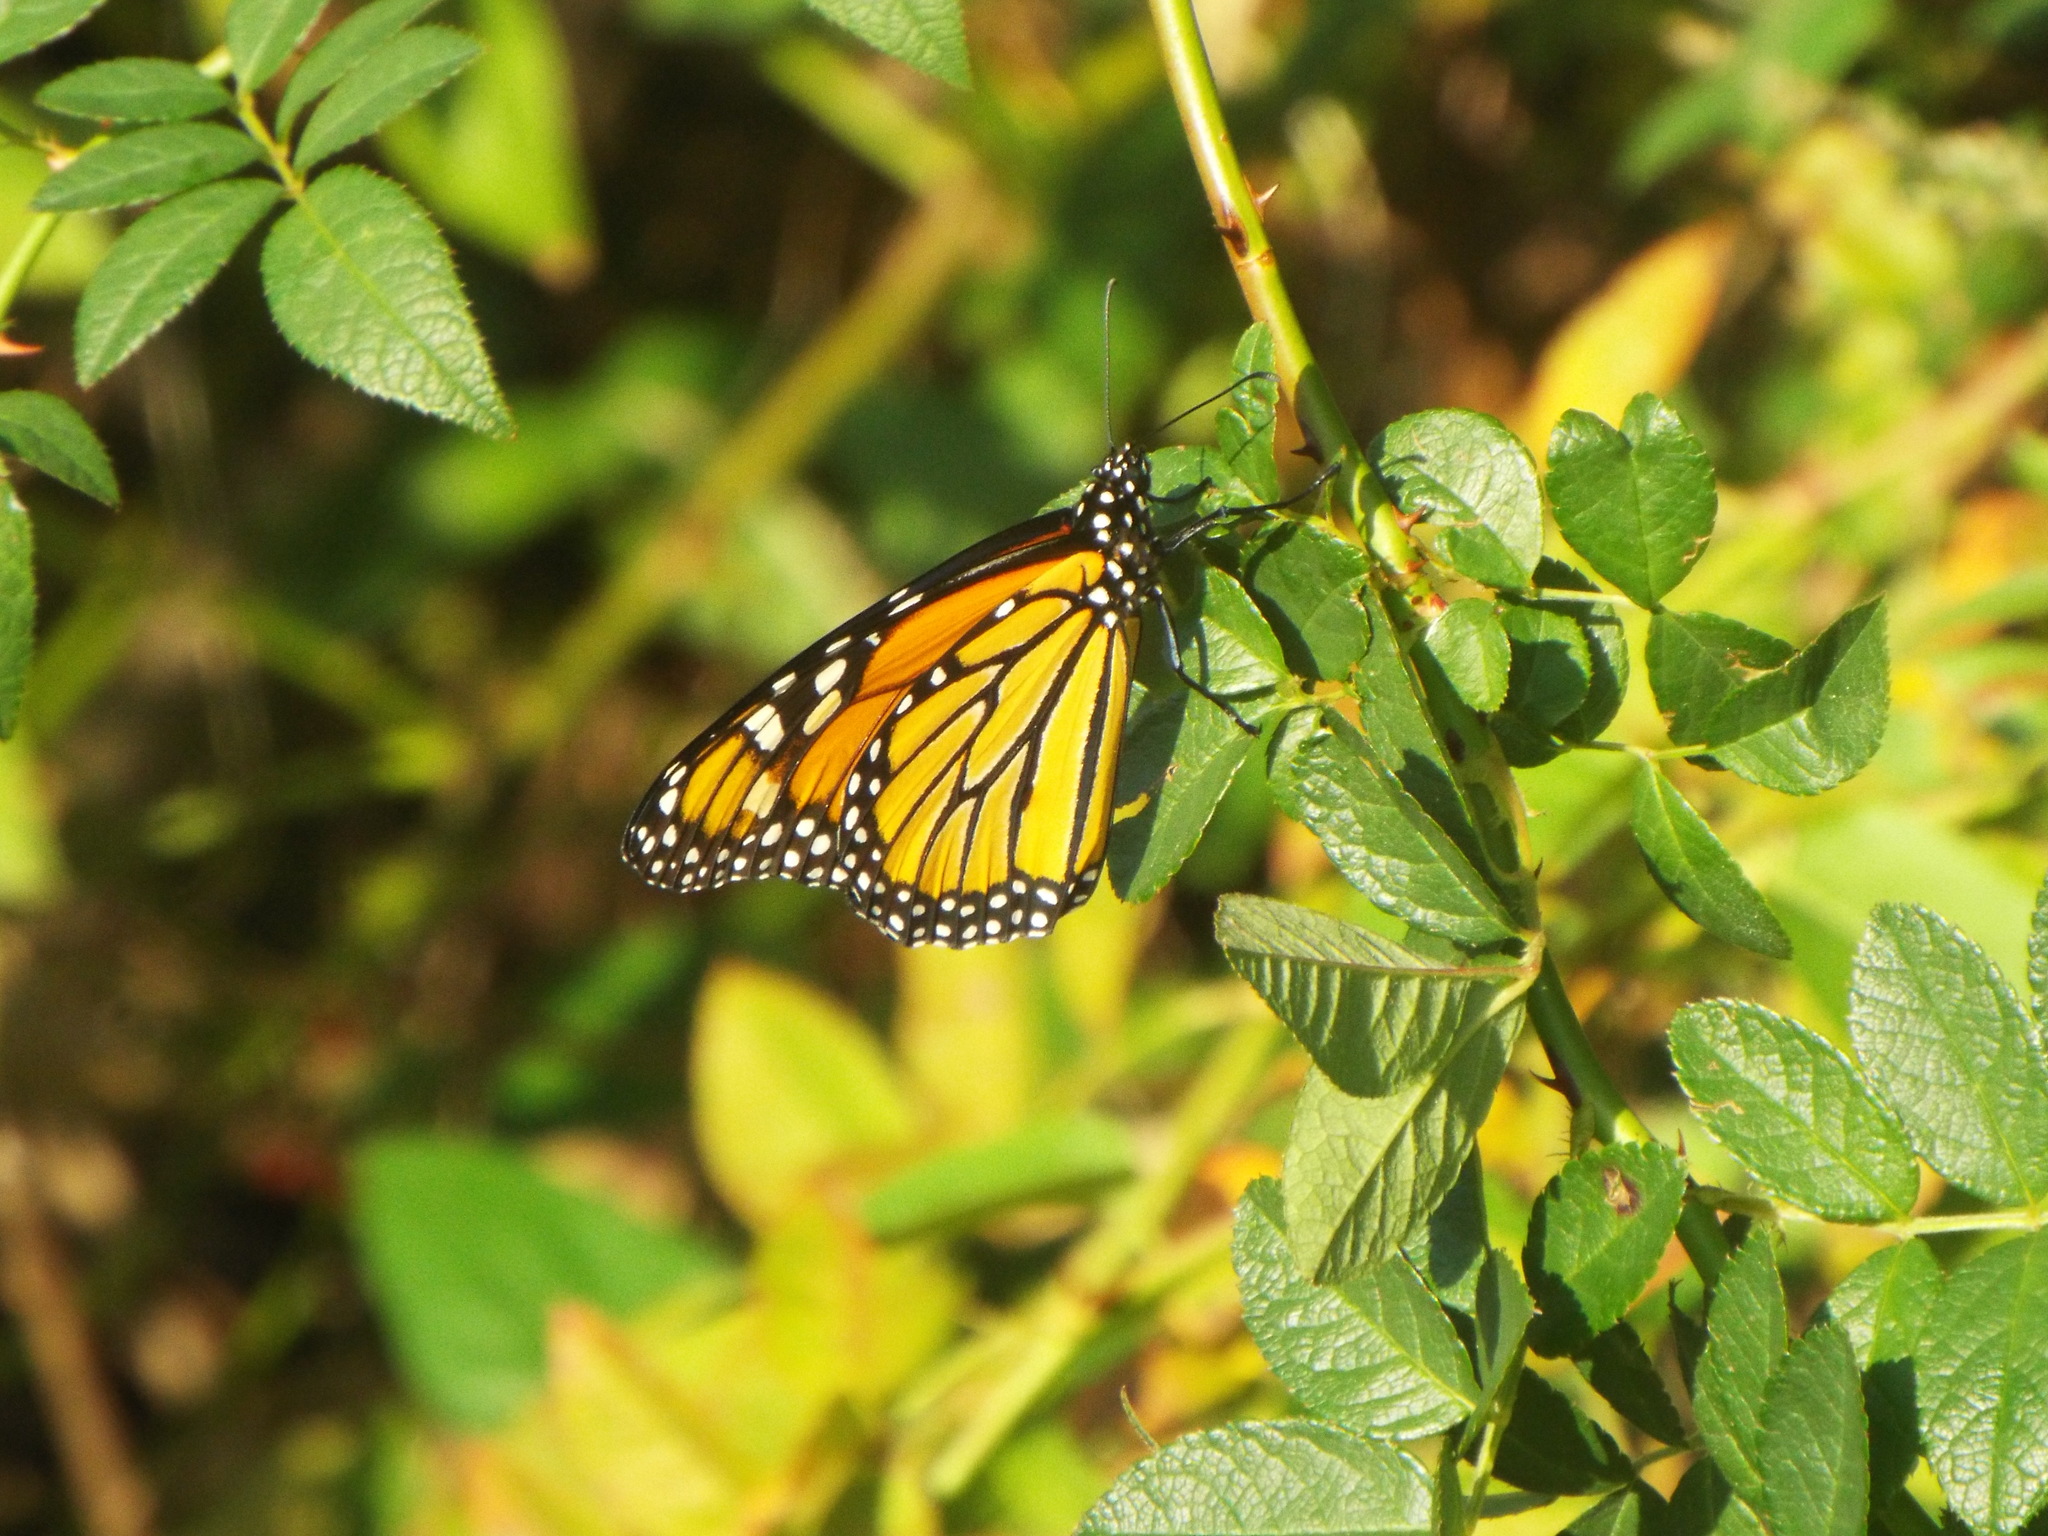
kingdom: Animalia
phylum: Arthropoda
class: Insecta
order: Lepidoptera
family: Nymphalidae
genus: Danaus
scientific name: Danaus plexippus
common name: Monarch
